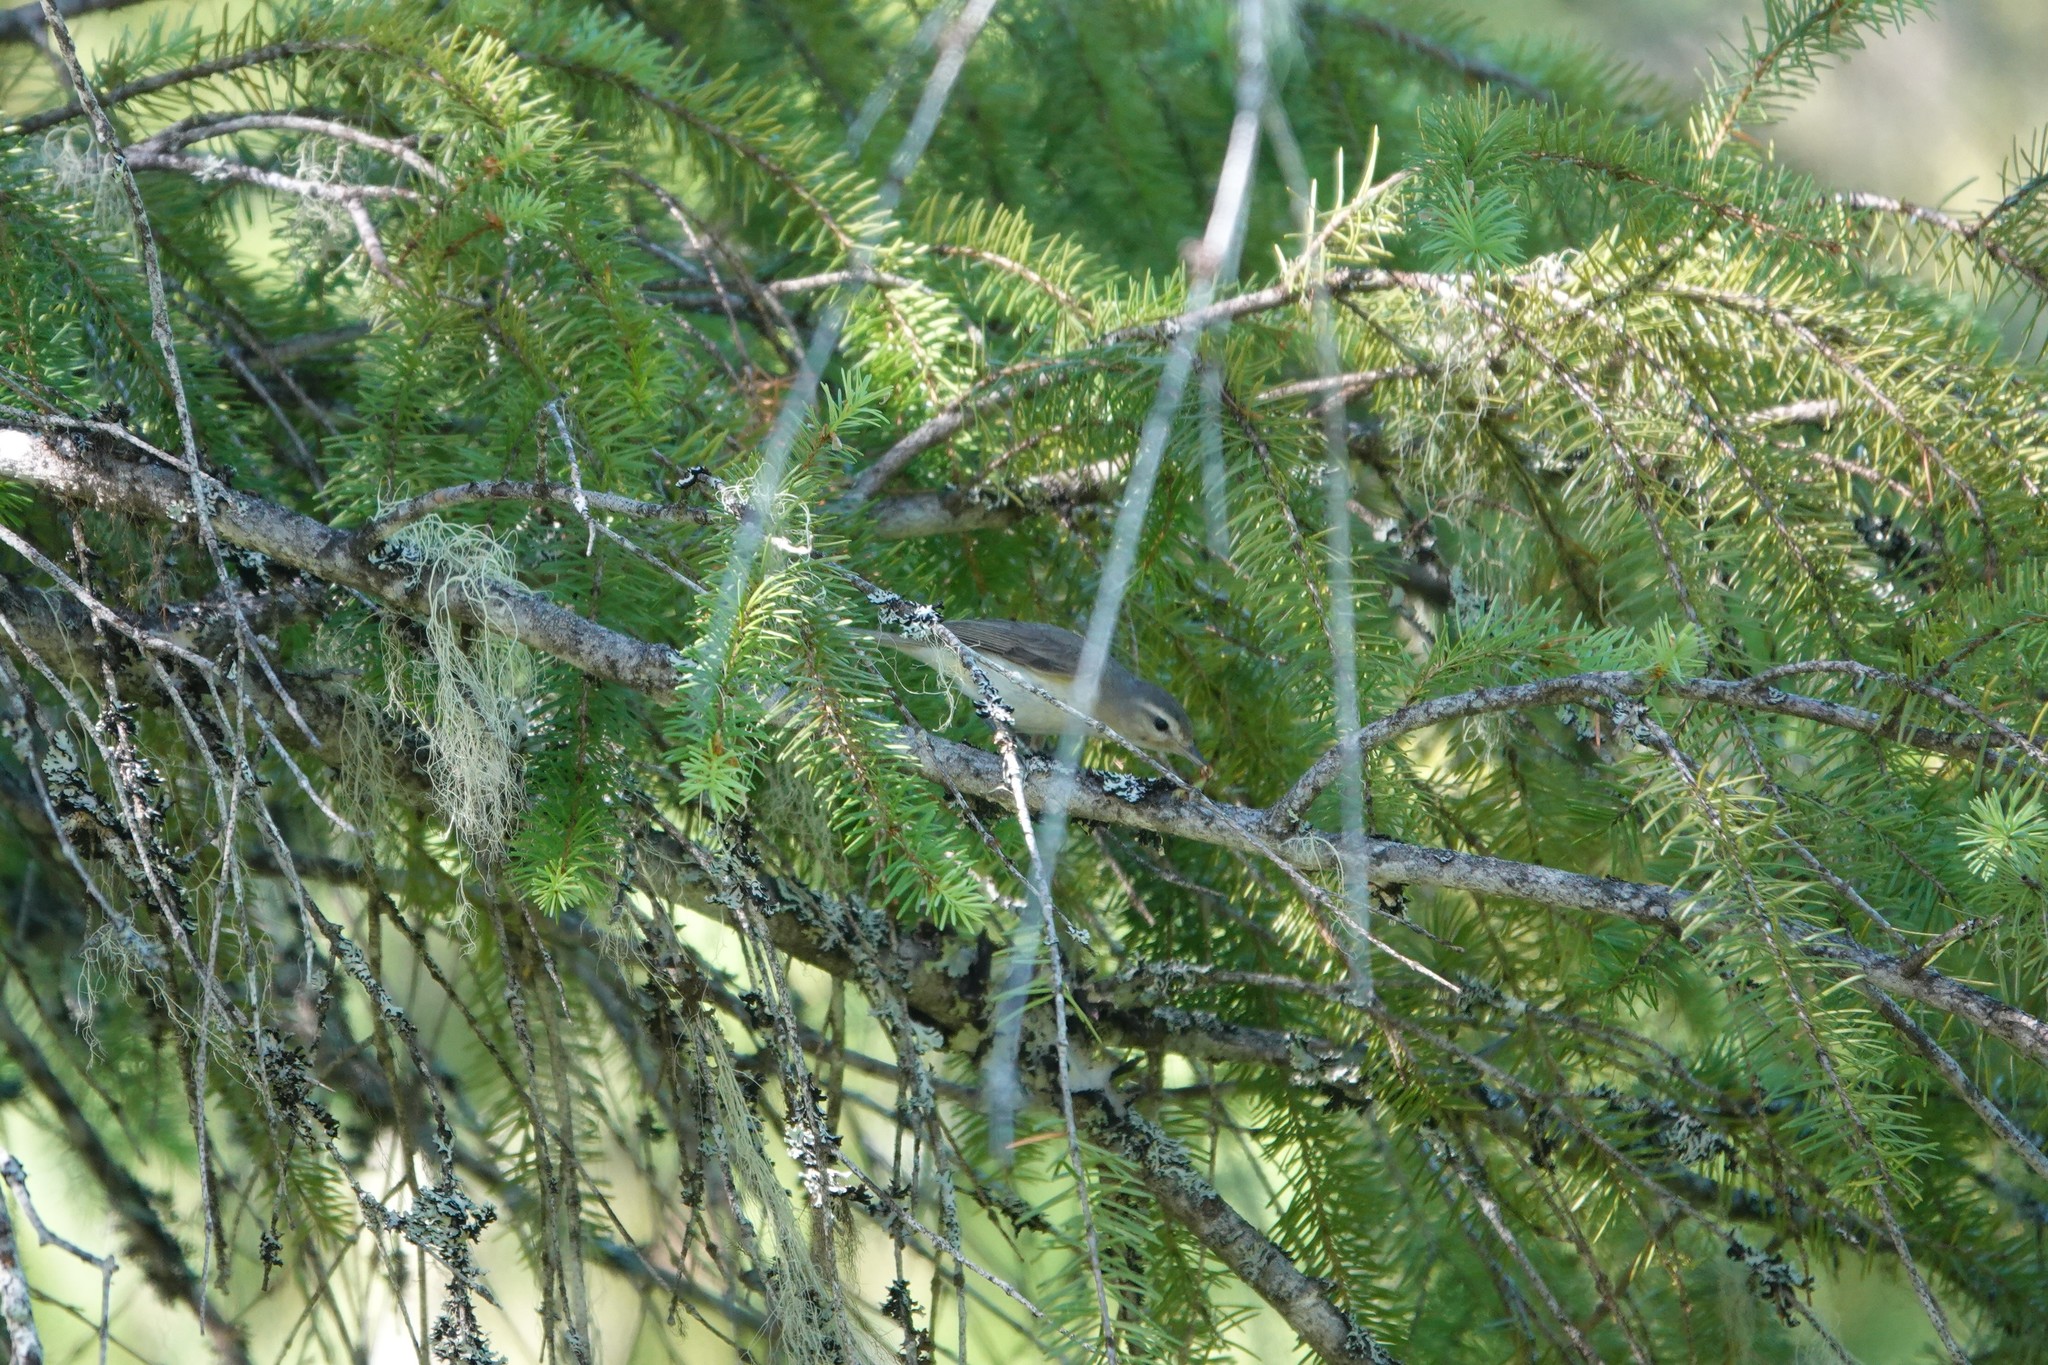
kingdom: Animalia
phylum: Chordata
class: Aves
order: Passeriformes
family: Vireonidae
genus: Vireo
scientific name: Vireo gilvus
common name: Warbling vireo
